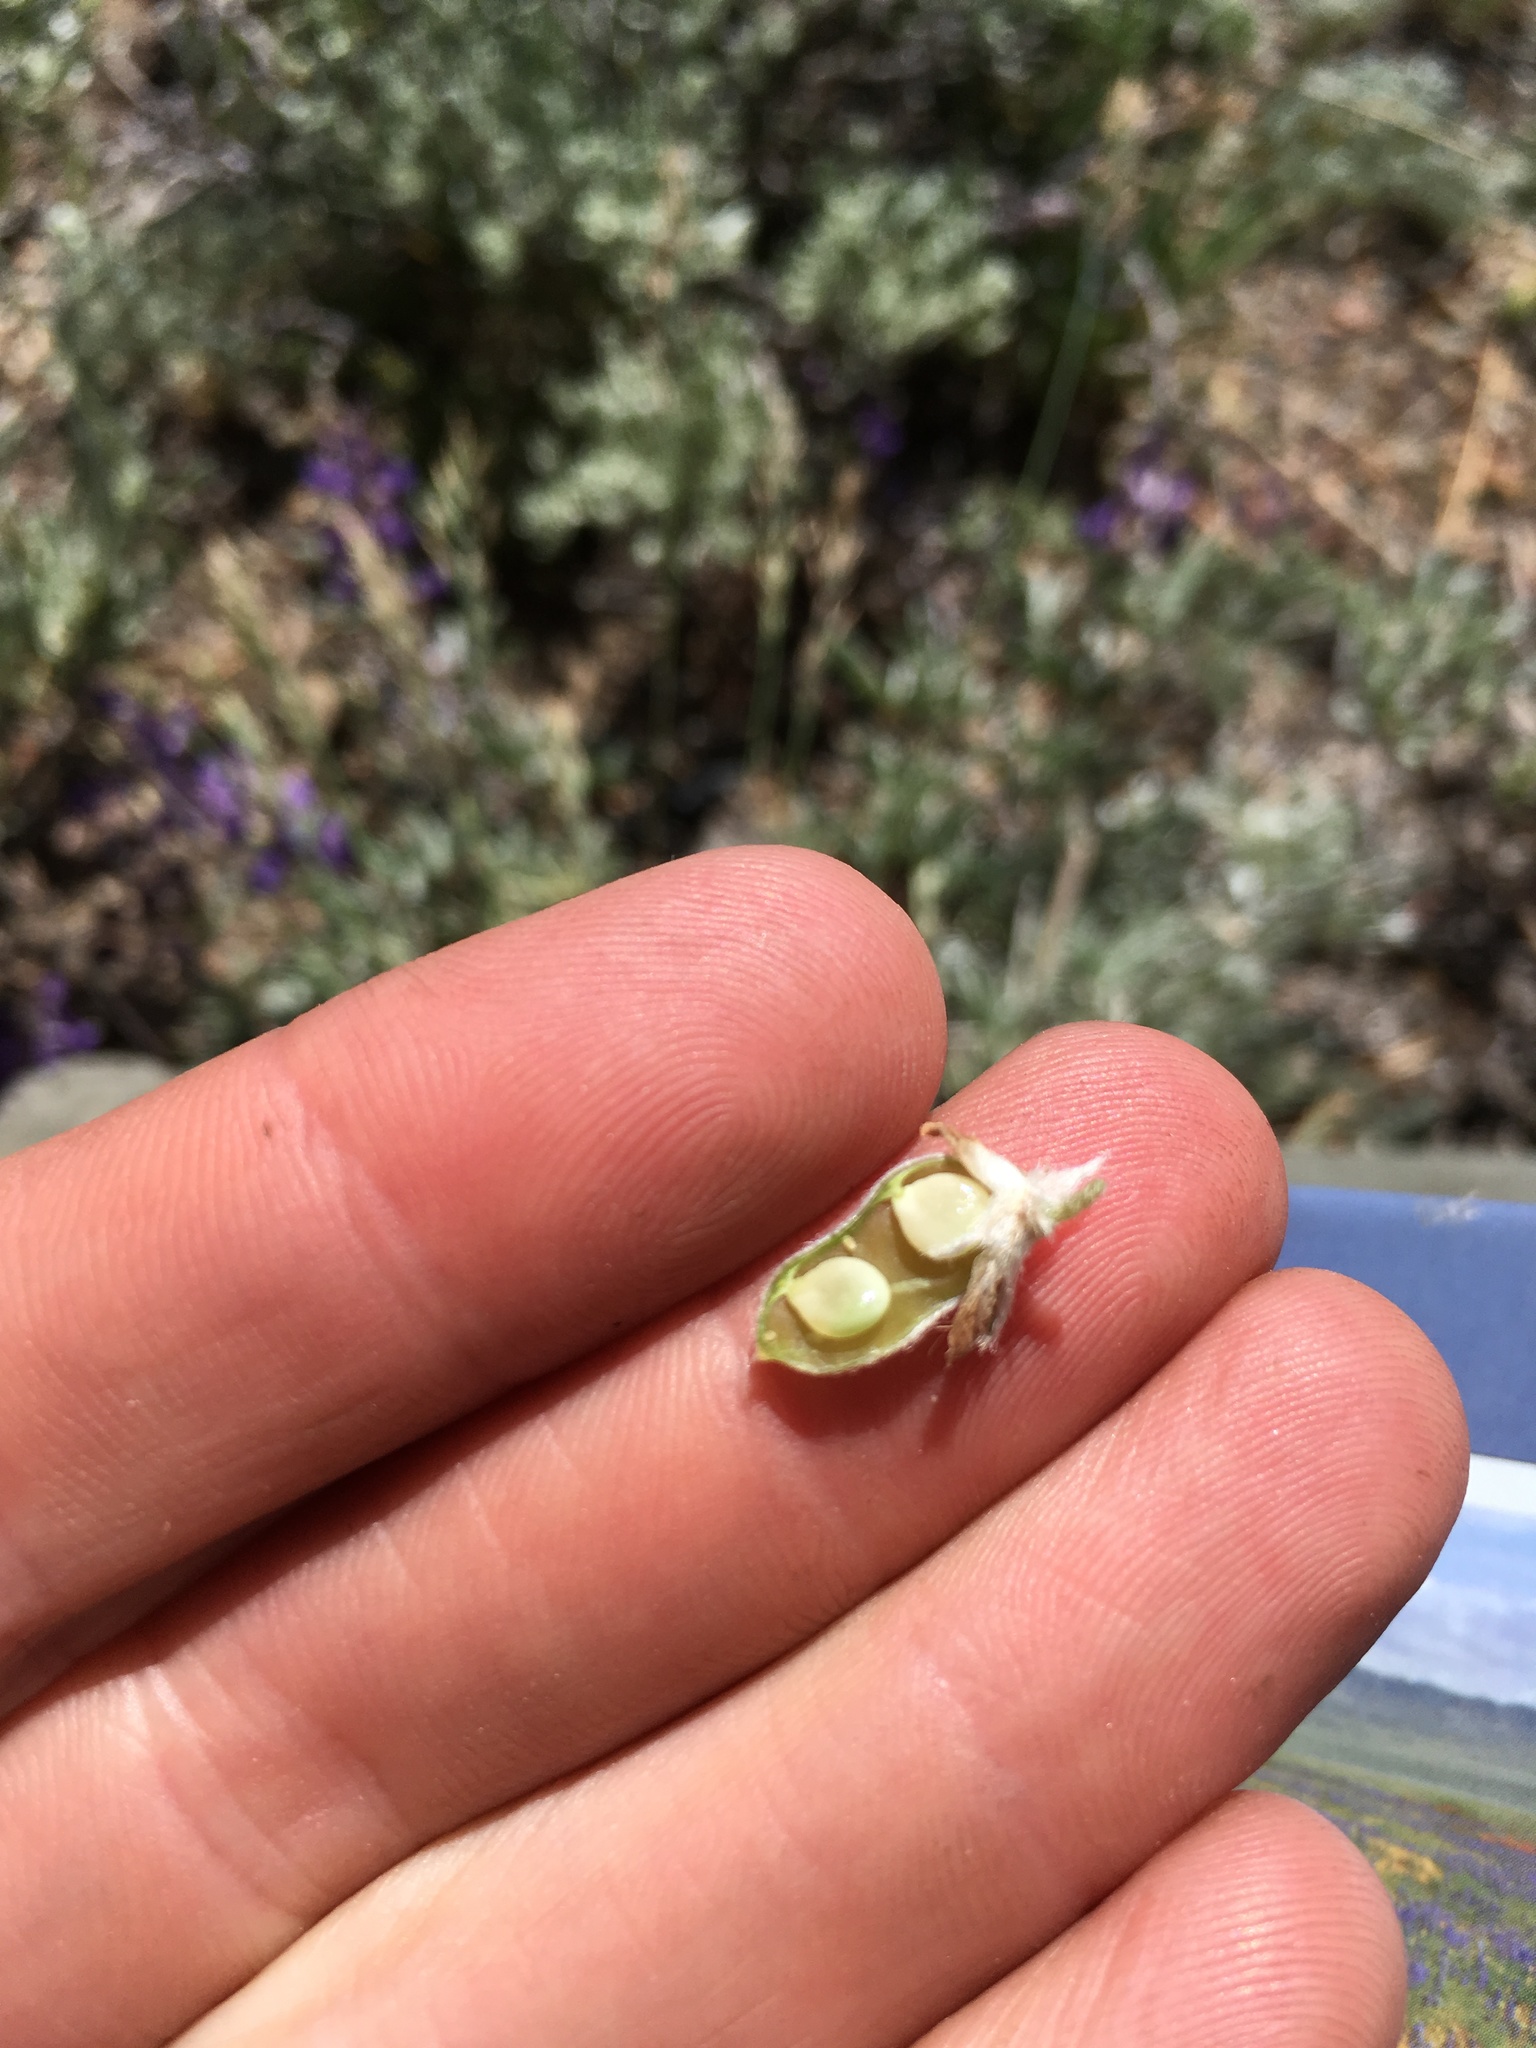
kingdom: Plantae
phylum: Tracheophyta
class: Magnoliopsida
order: Fabales
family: Fabaceae
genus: Lupinus
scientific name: Lupinus breweri
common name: Brewer's lupine
